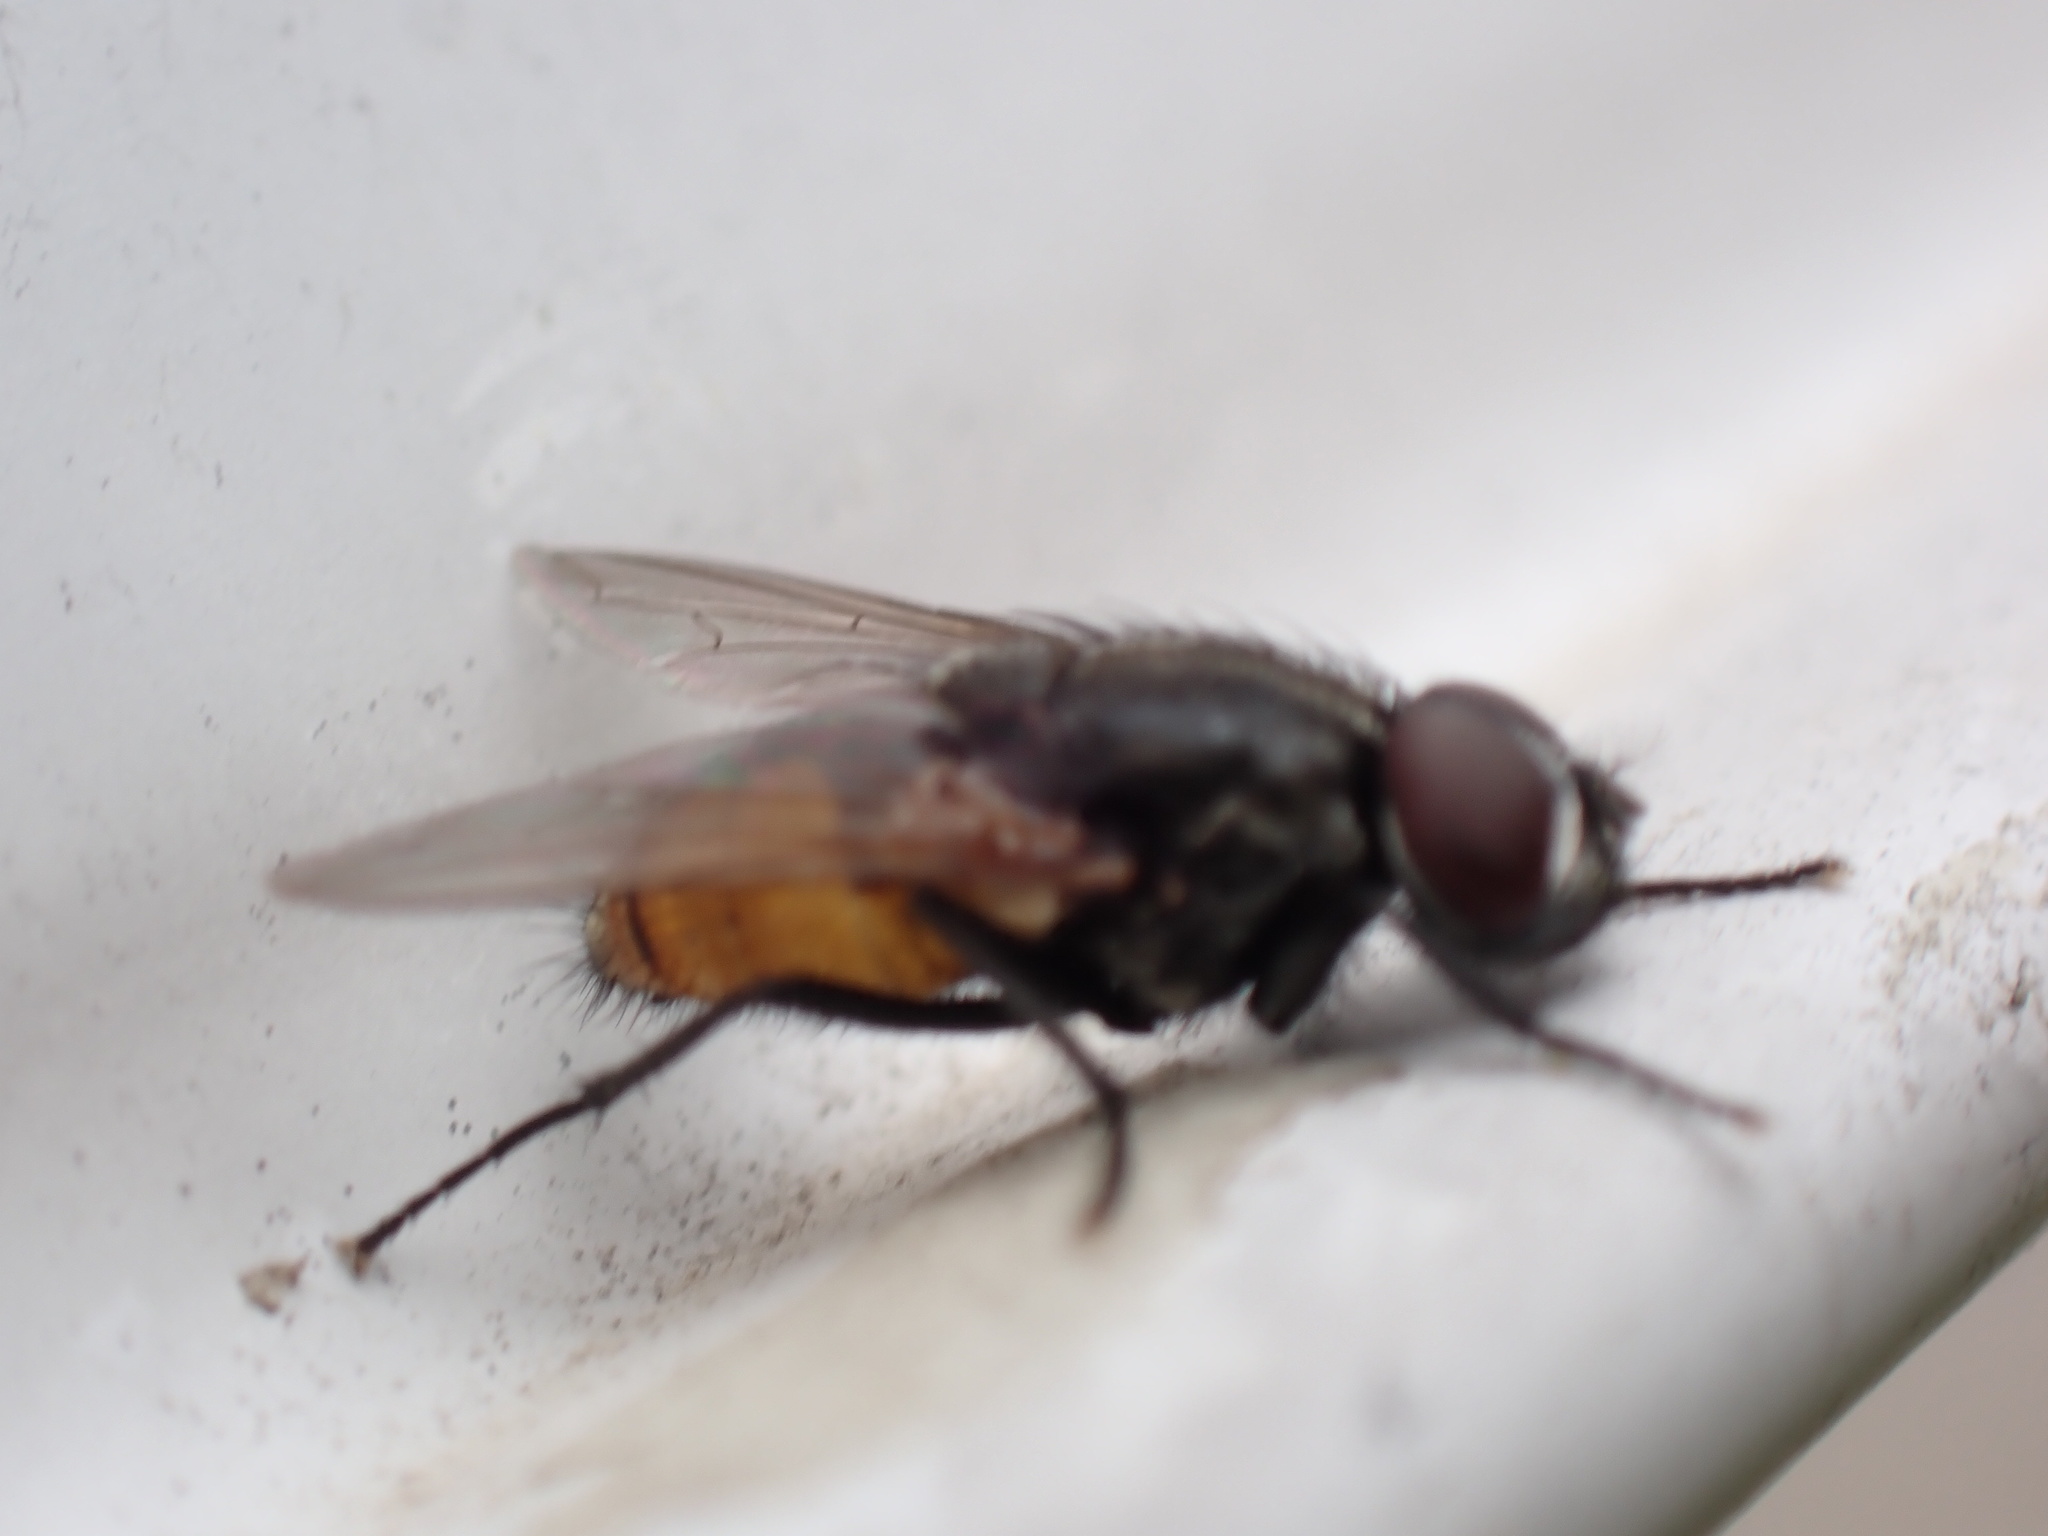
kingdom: Animalia
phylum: Arthropoda
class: Insecta
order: Diptera
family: Muscidae
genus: Musca
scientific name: Musca autumnalis
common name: Face fly
